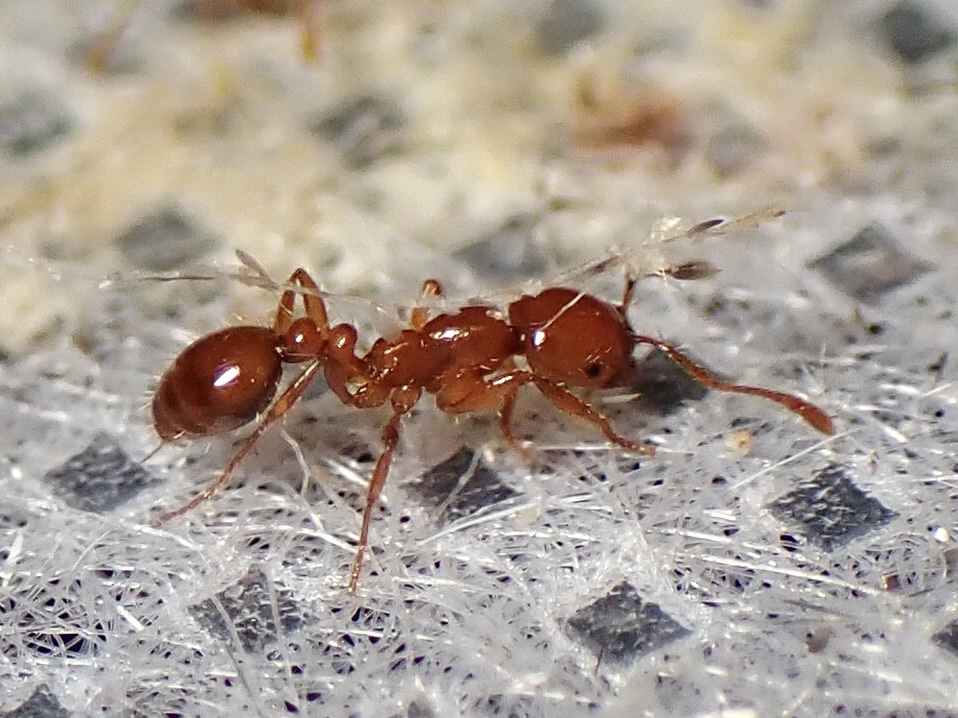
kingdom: Animalia
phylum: Arthropoda
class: Insecta
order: Hymenoptera
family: Formicidae
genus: Solenopsis
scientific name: Solenopsis amblychila
